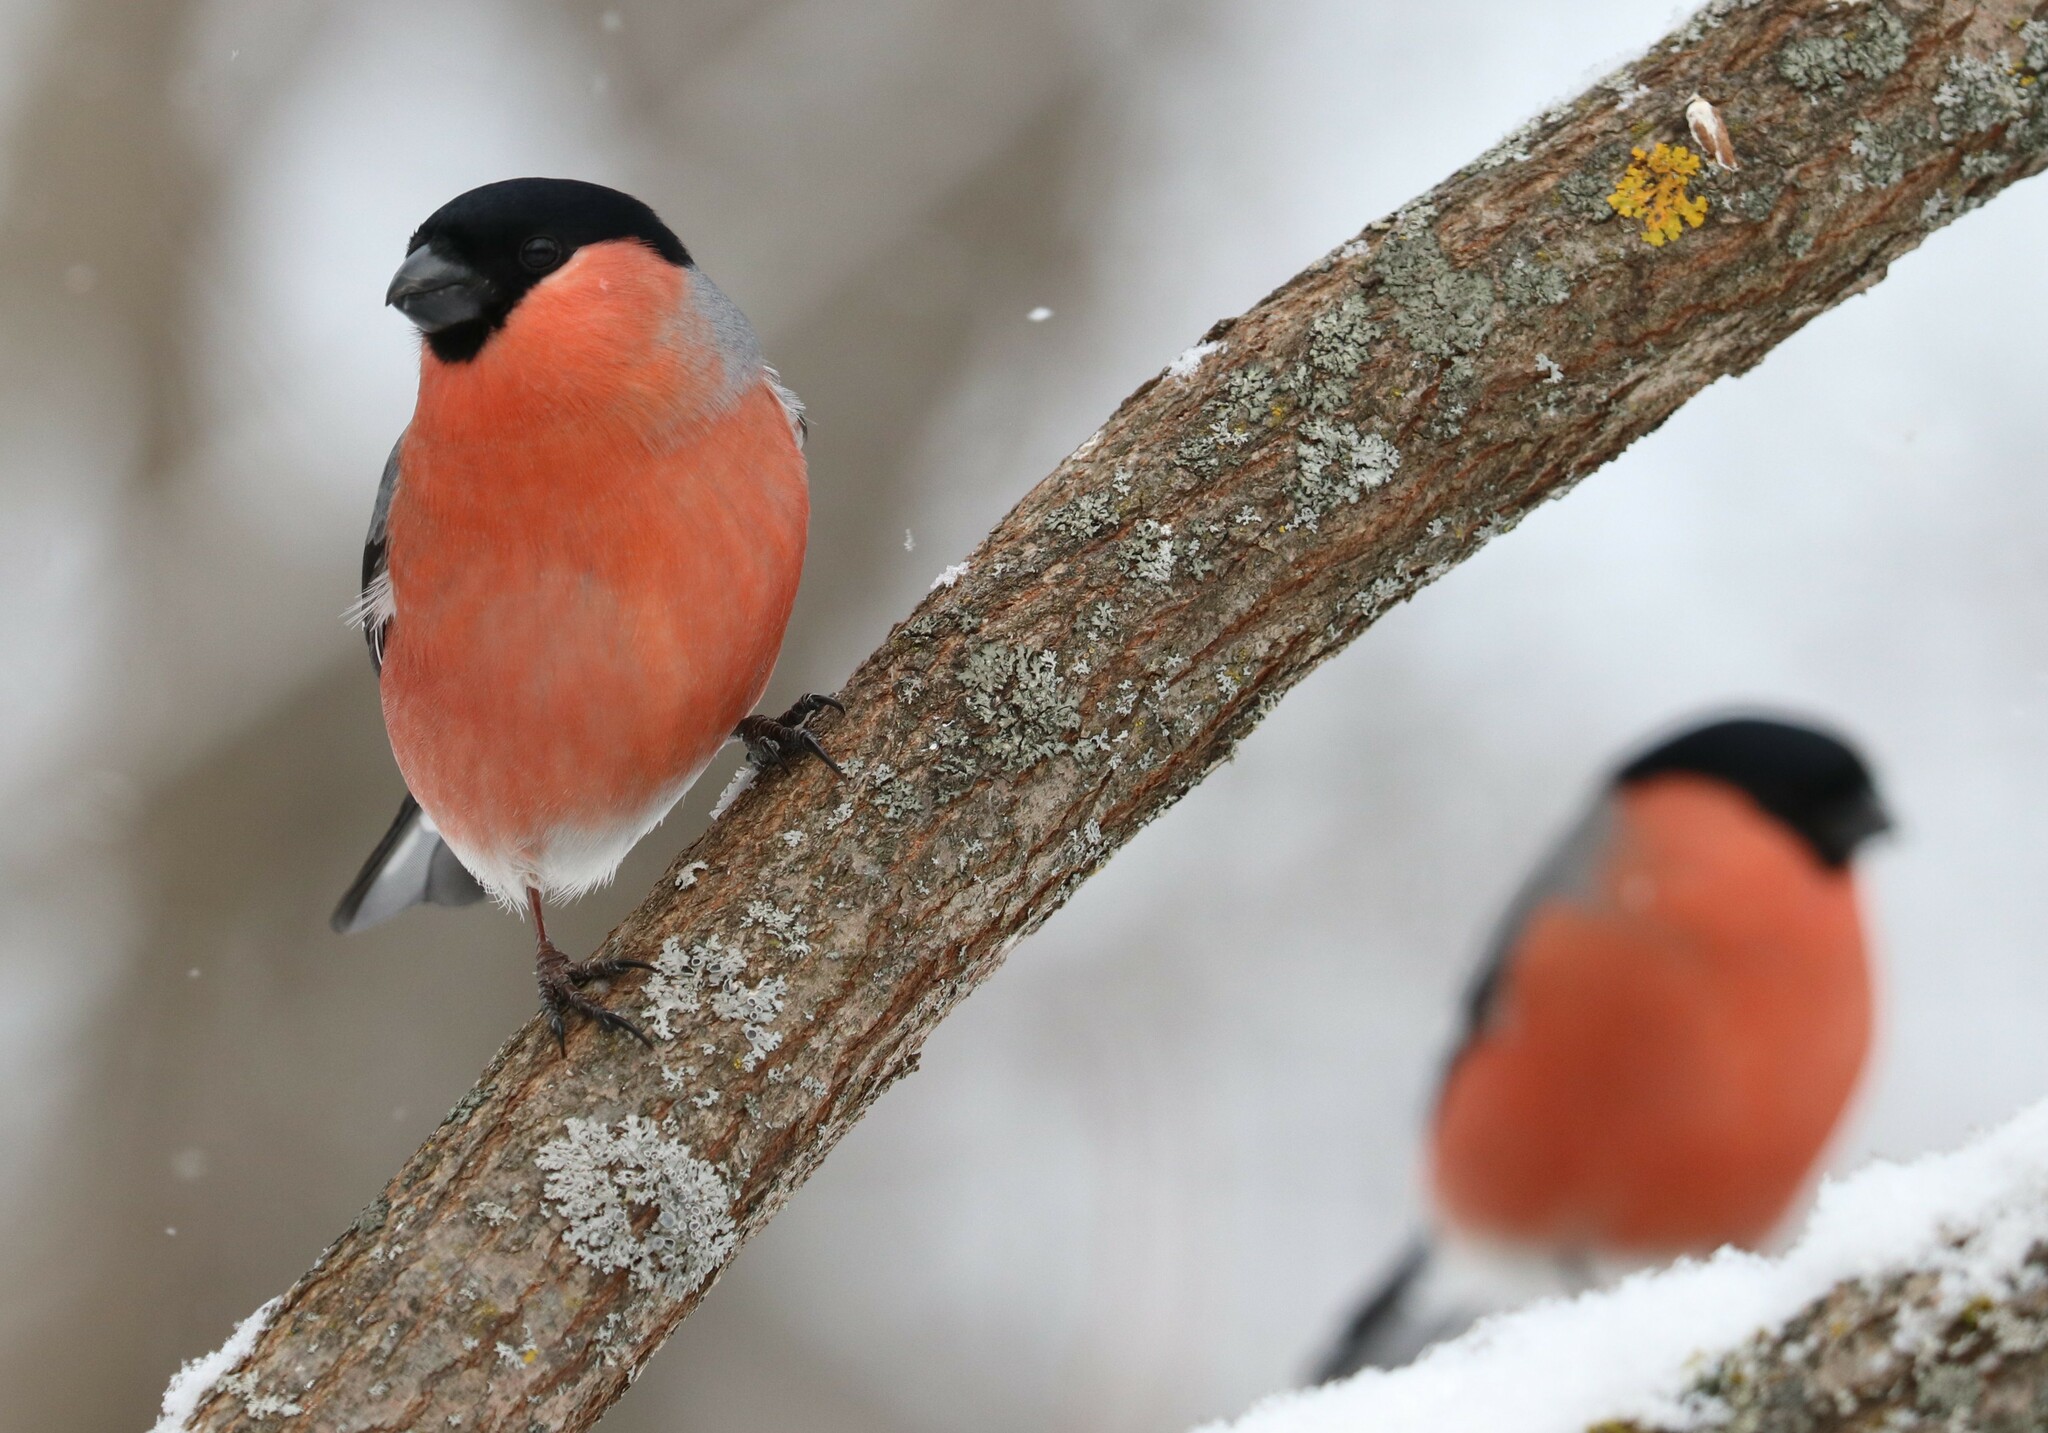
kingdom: Animalia
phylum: Chordata
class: Aves
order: Passeriformes
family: Fringillidae
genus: Pyrrhula
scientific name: Pyrrhula pyrrhula
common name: Eurasian bullfinch
